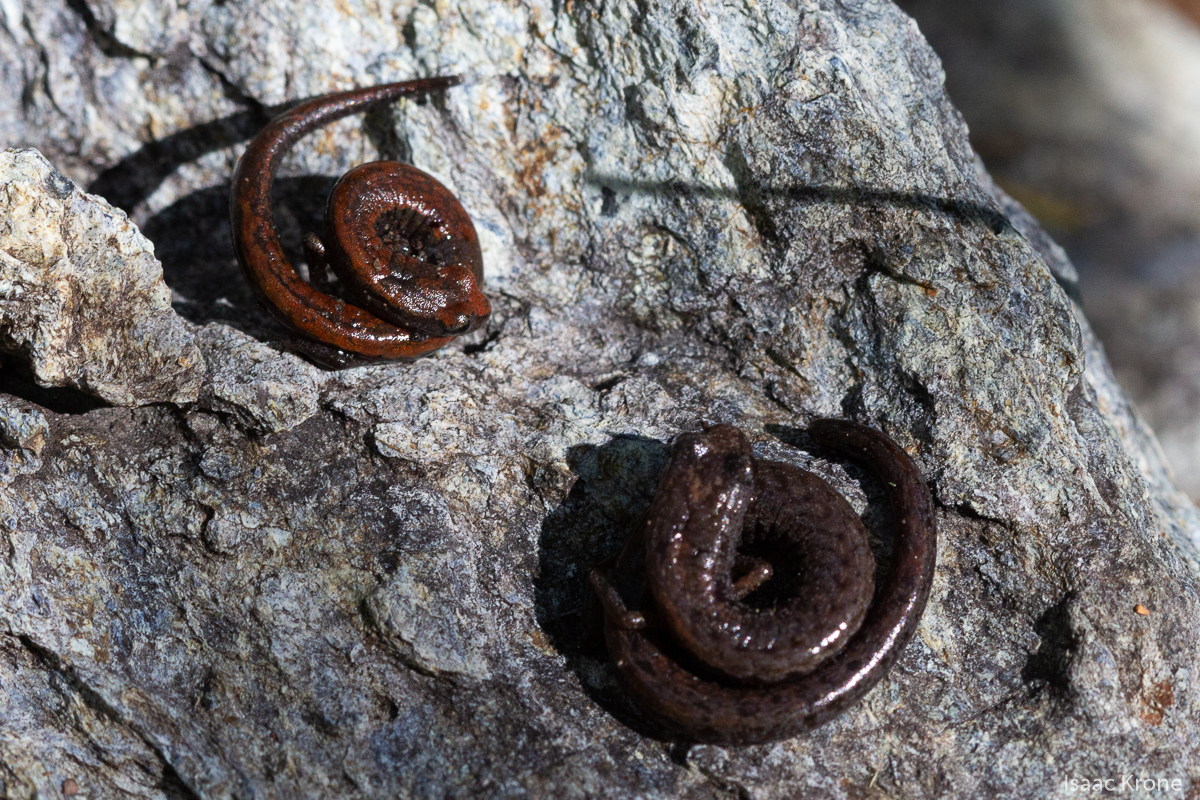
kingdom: Animalia
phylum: Chordata
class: Amphibia
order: Caudata
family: Plethodontidae
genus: Batrachoseps
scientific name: Batrachoseps attenuatus
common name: California slender salamander
